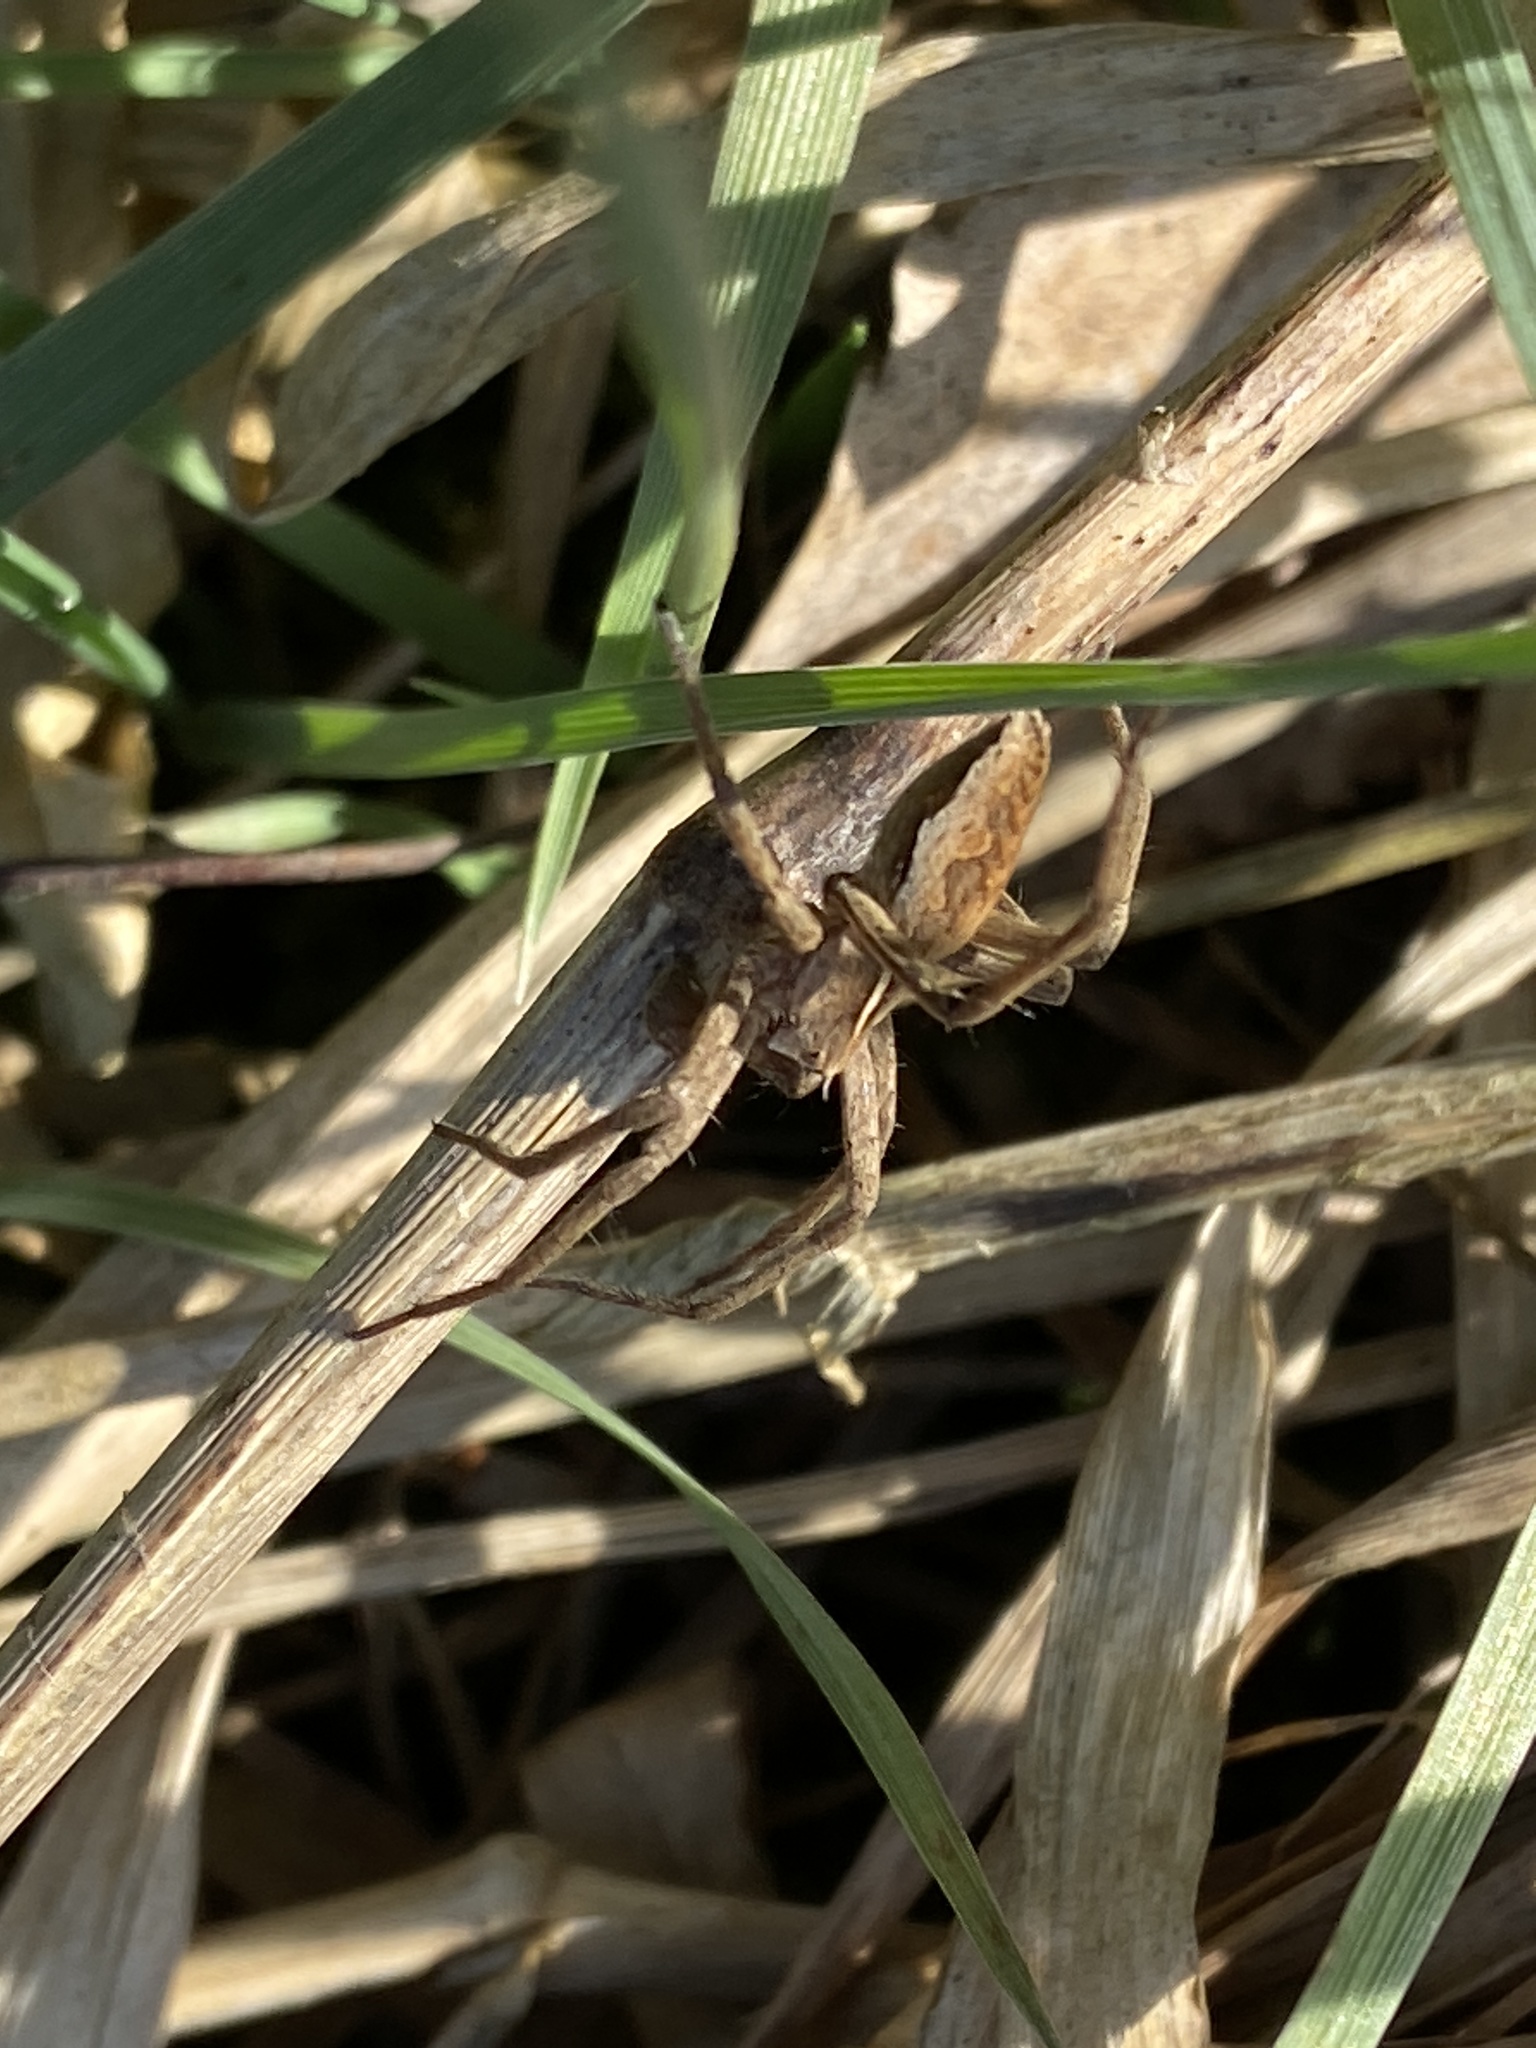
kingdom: Animalia
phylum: Arthropoda
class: Arachnida
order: Araneae
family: Pisauridae
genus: Pisaura
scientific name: Pisaura mirabilis
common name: Tent spider
